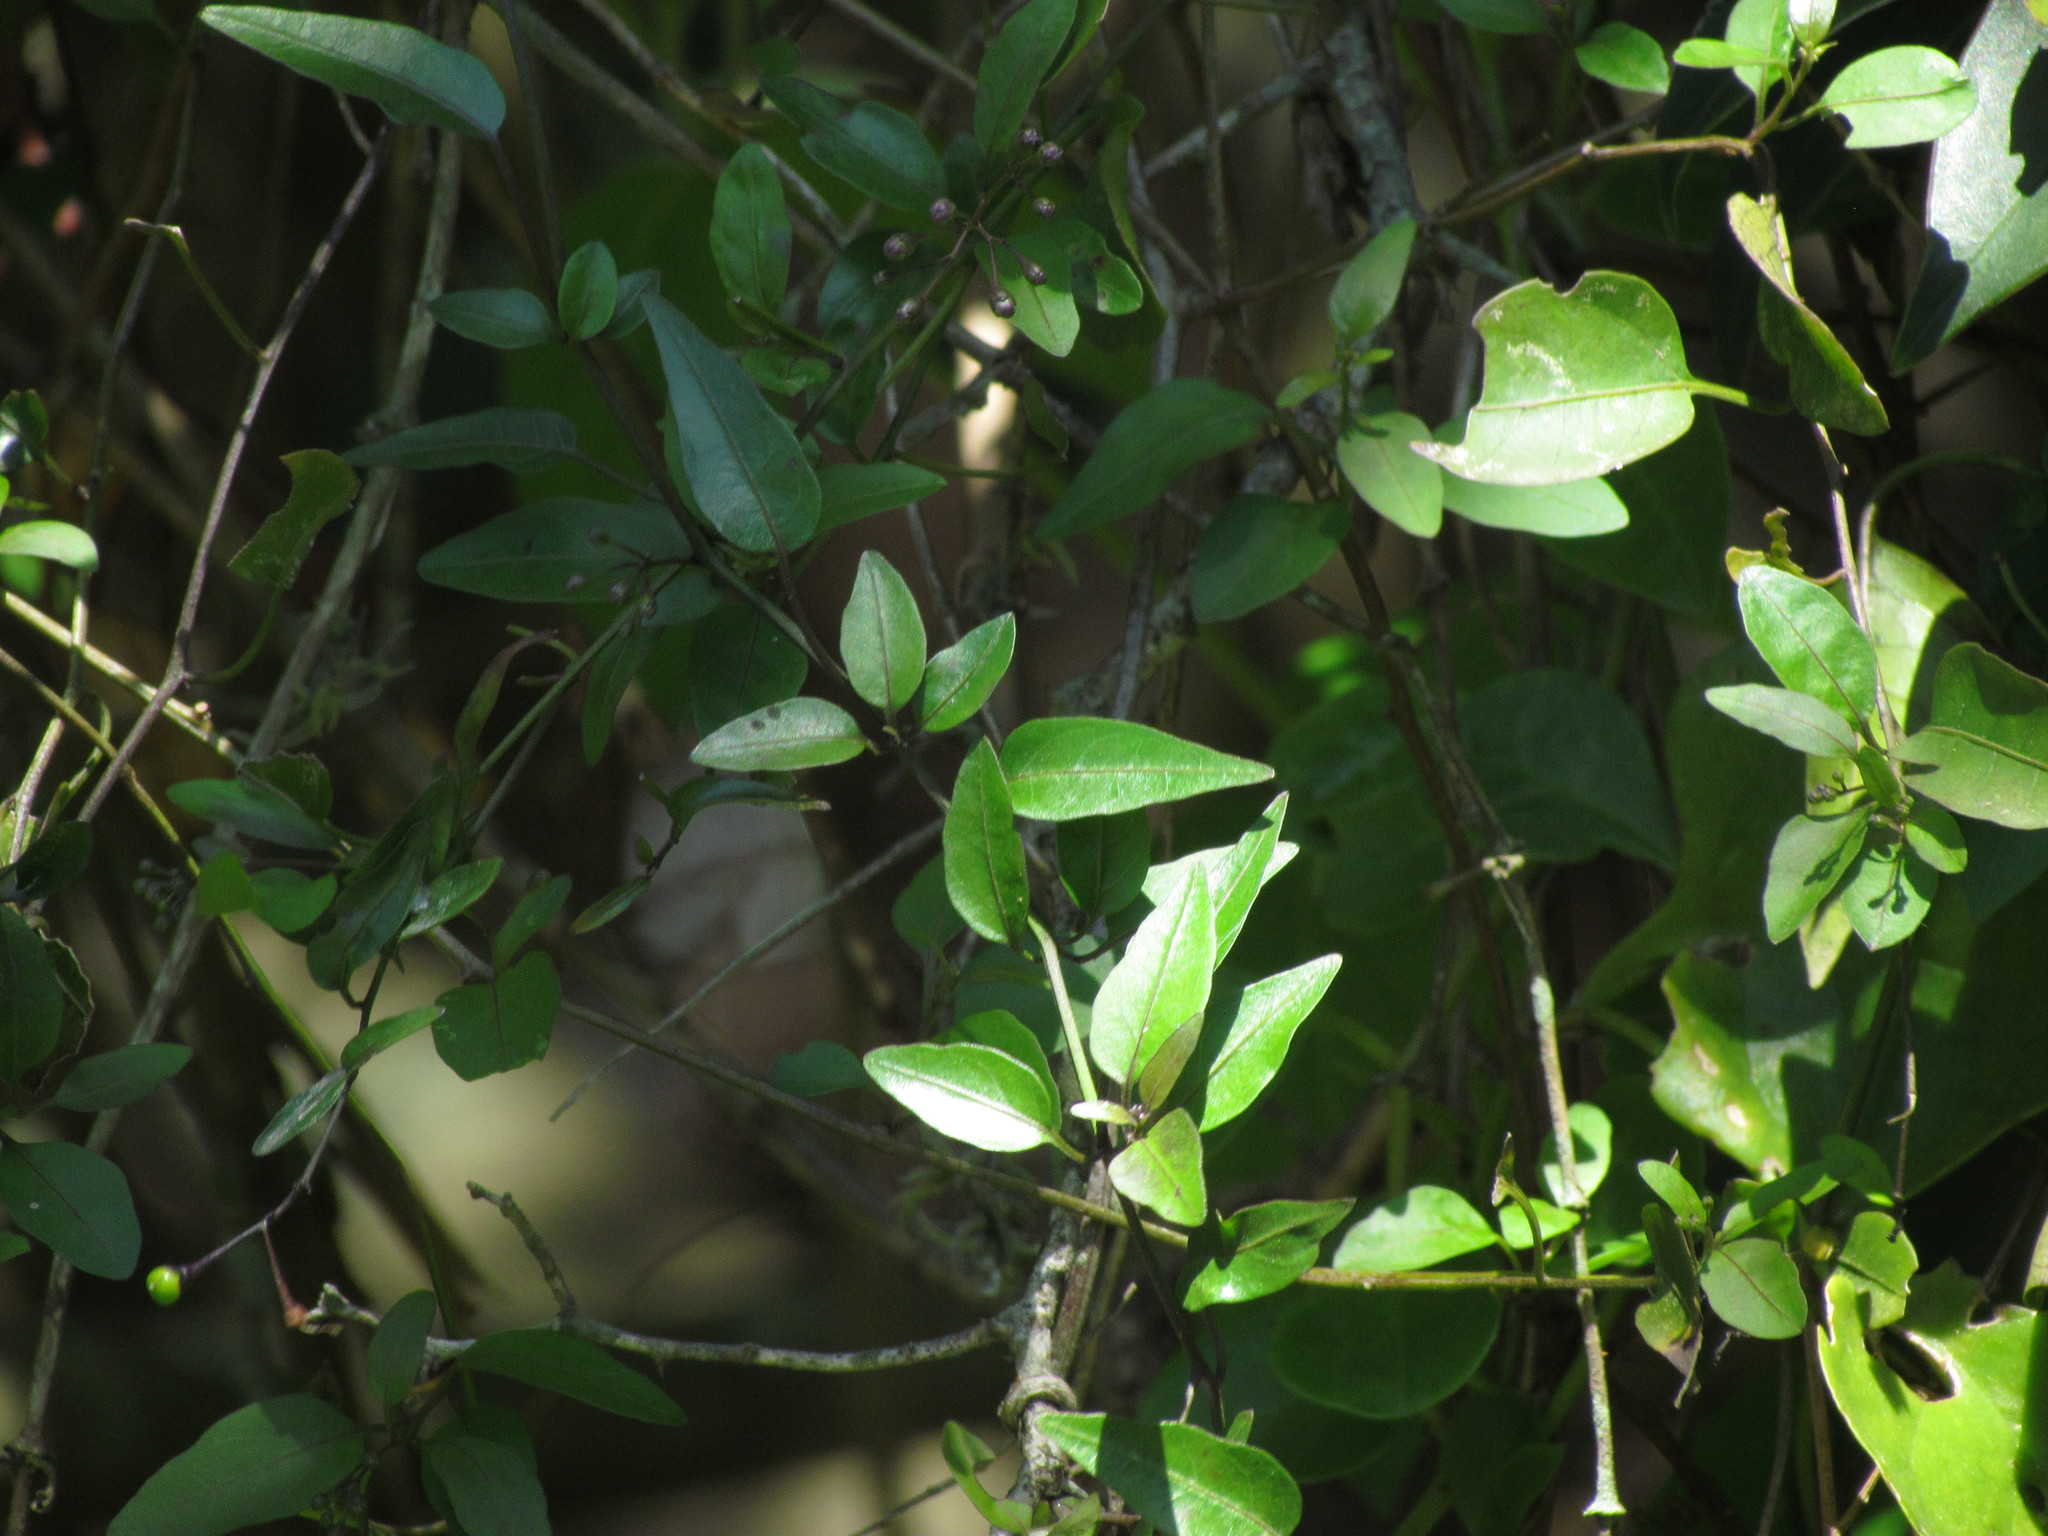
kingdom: Plantae
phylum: Tracheophyta
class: Magnoliopsida
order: Solanales
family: Solanaceae
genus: Solanum
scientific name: Solanum laxum
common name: Nightshade
